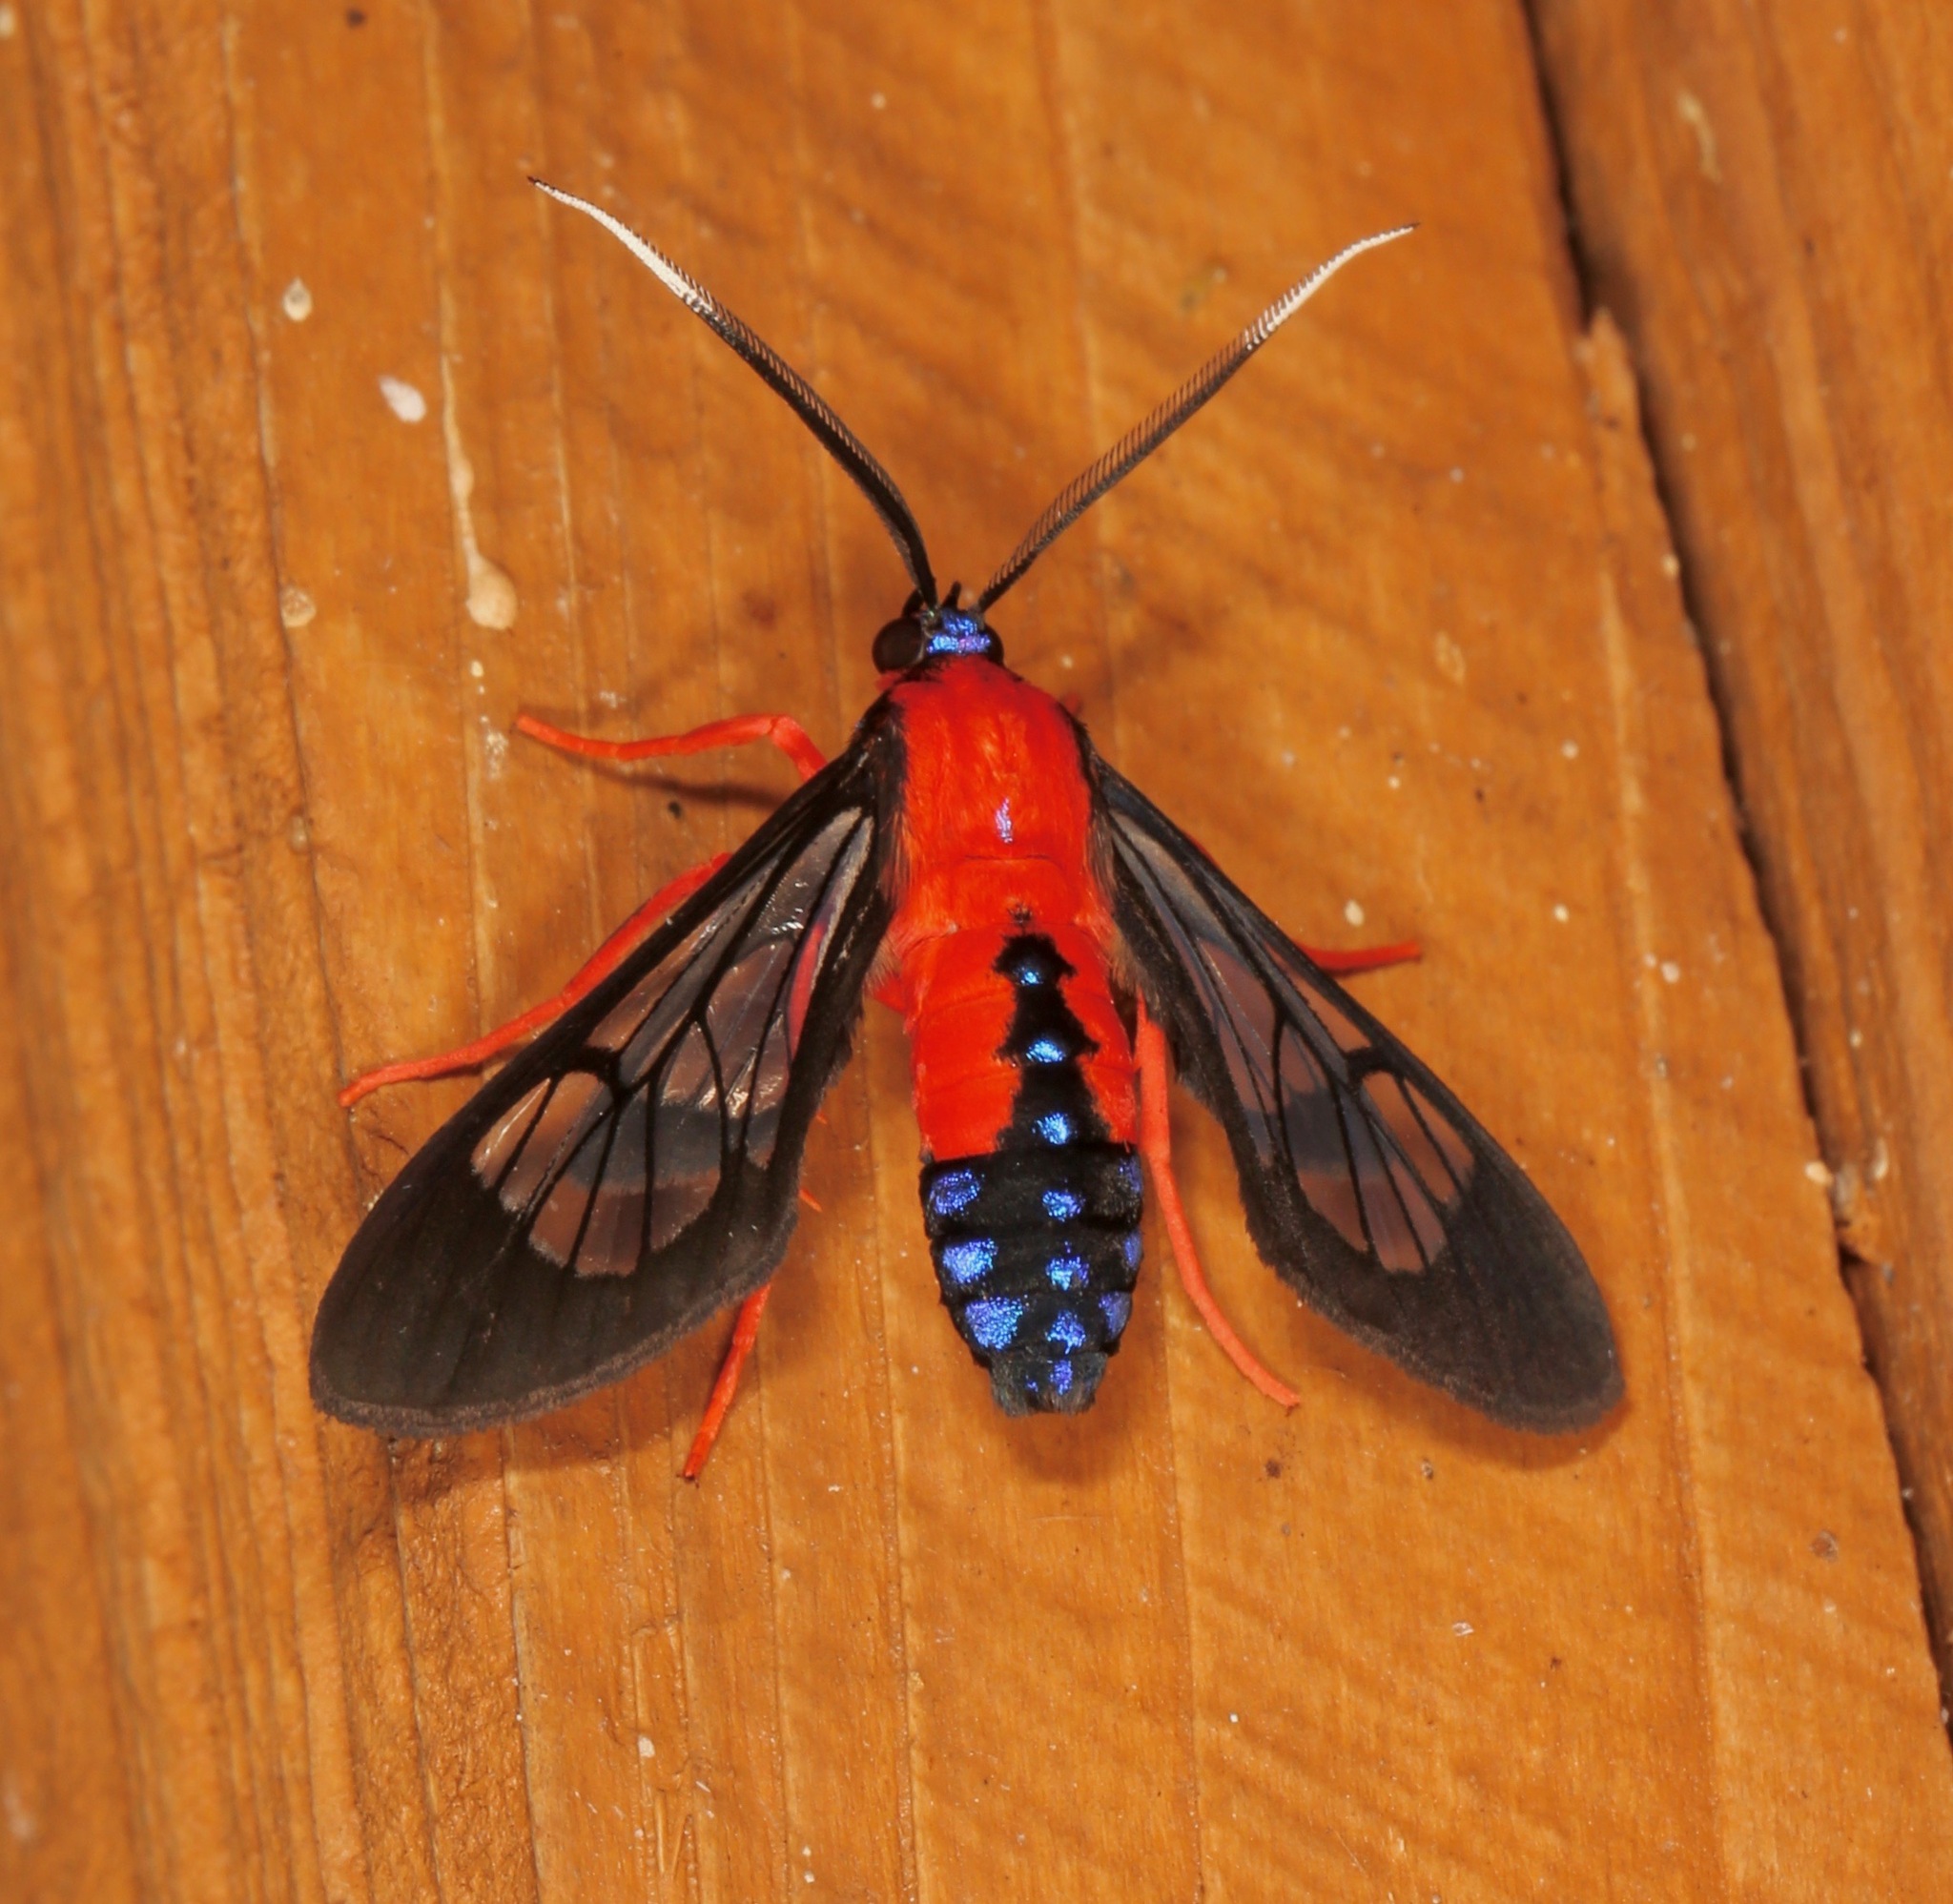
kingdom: Animalia
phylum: Arthropoda
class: Insecta
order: Lepidoptera
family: Erebidae
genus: Cosmosoma
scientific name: Cosmosoma myrodora
